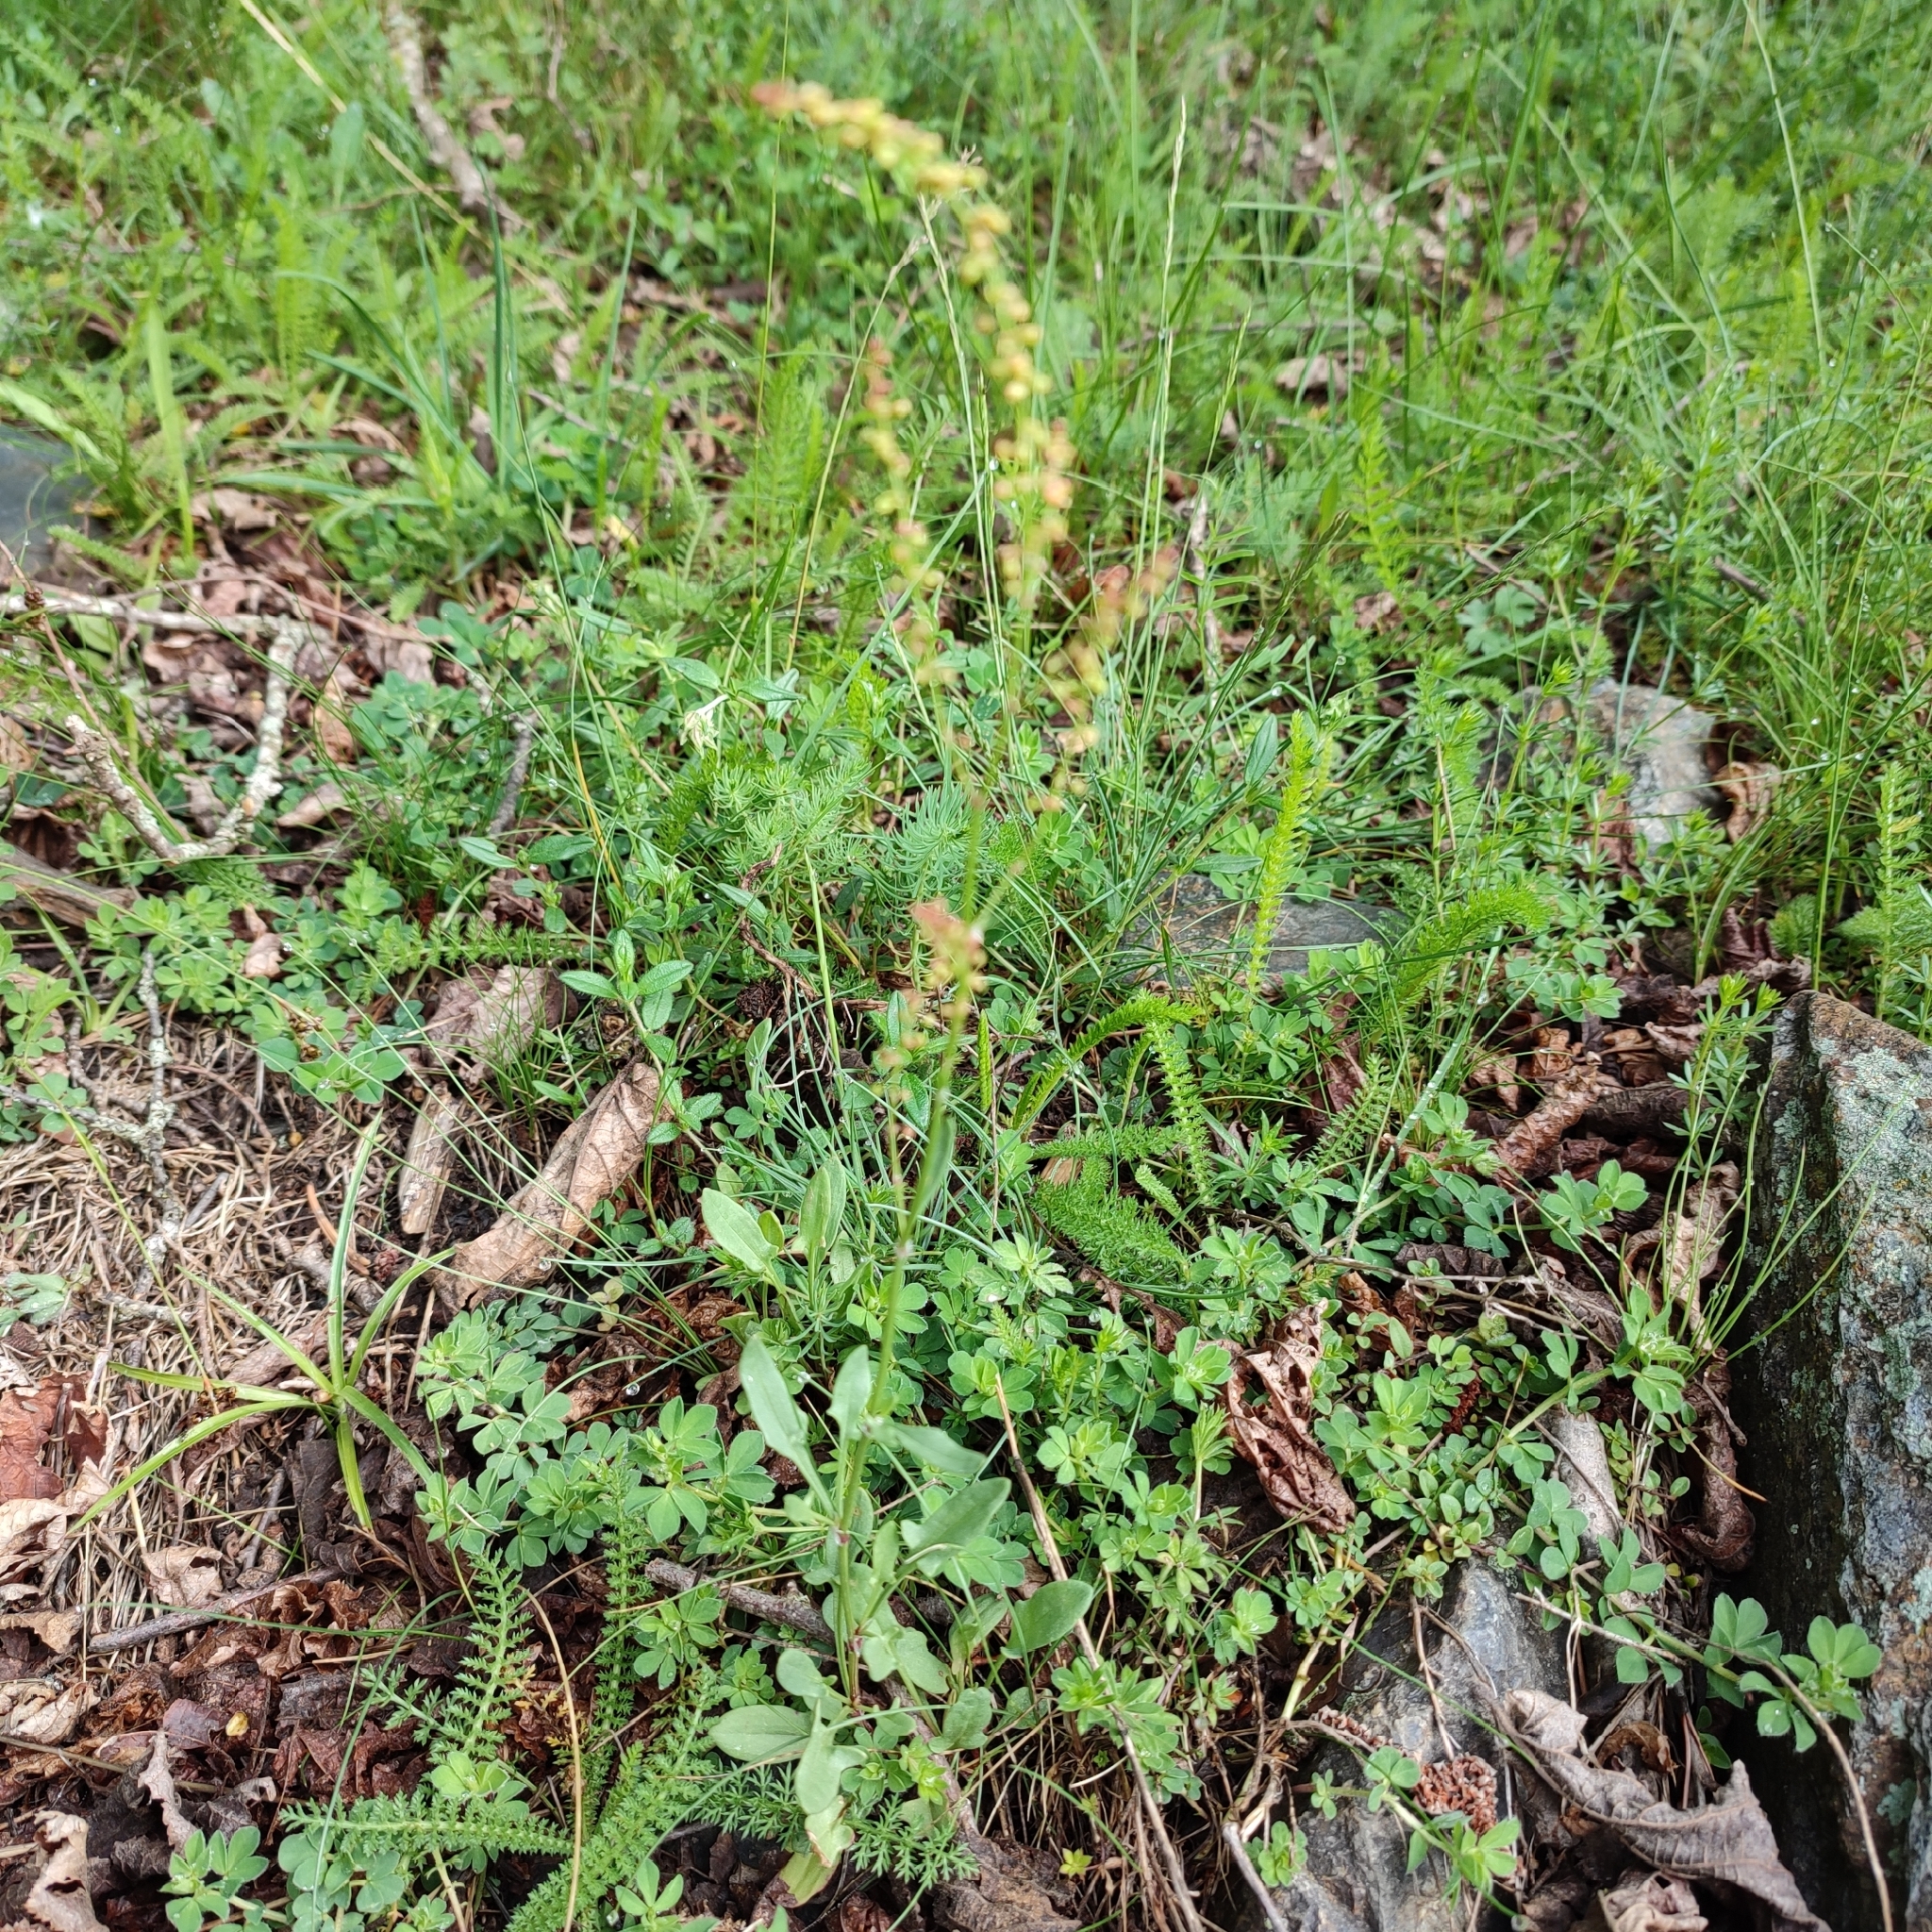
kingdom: Plantae
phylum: Tracheophyta
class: Magnoliopsida
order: Caryophyllales
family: Polygonaceae
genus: Rumex
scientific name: Rumex acetosella
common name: Common sheep sorrel
